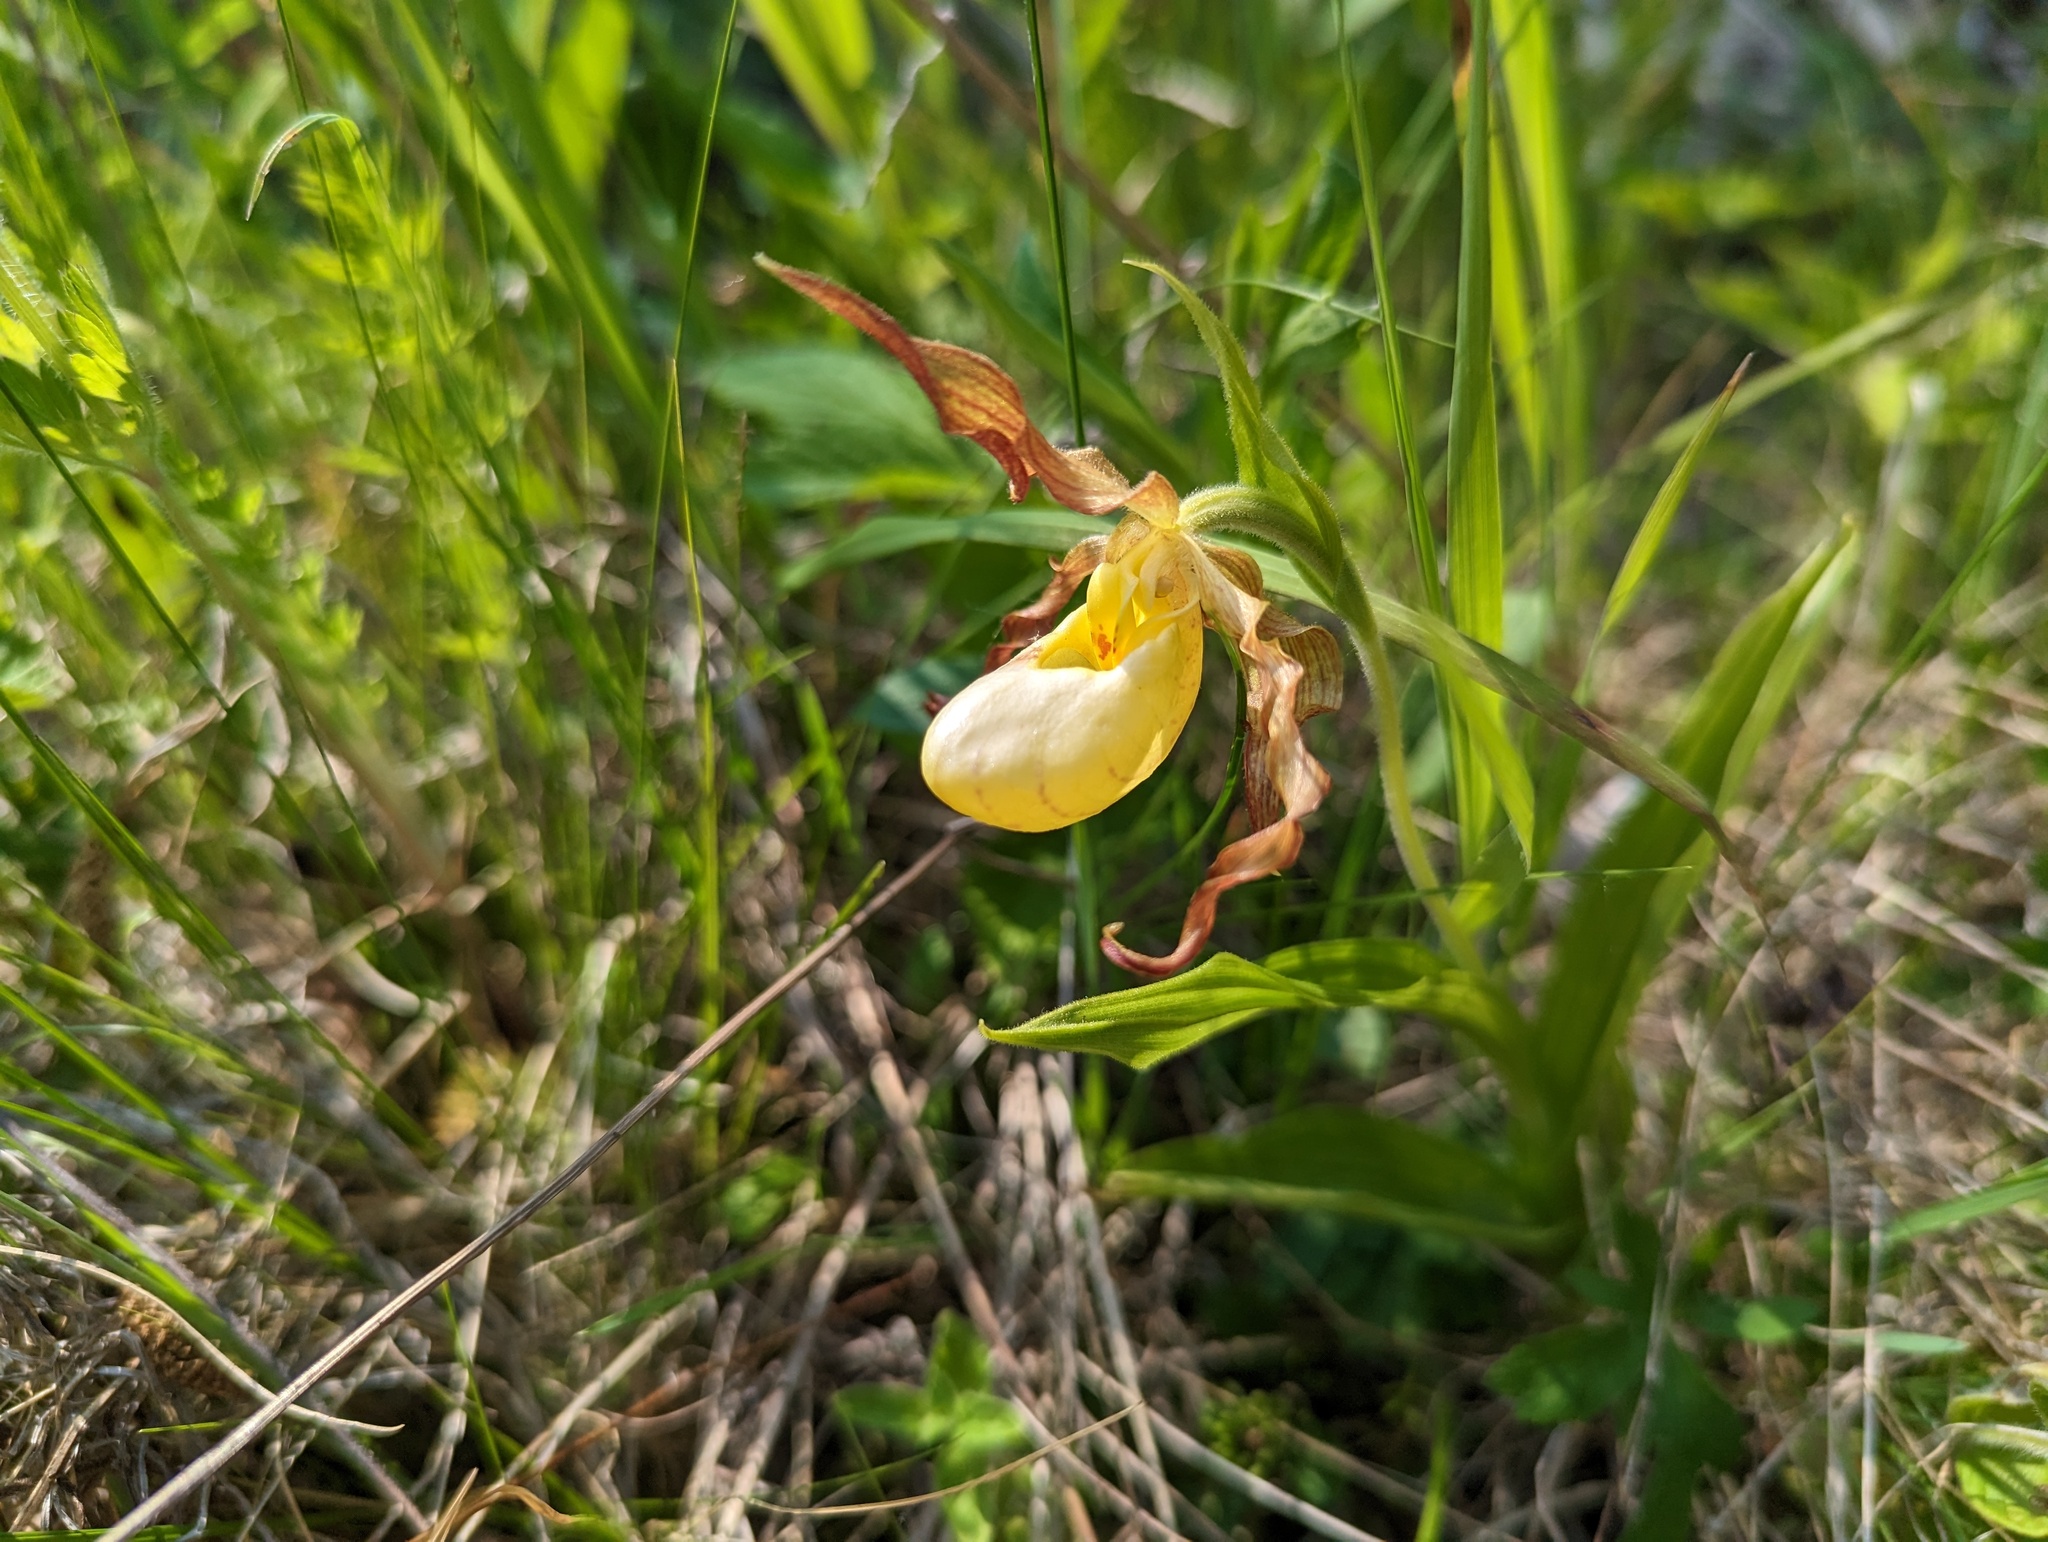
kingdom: Plantae
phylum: Tracheophyta
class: Liliopsida
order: Asparagales
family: Orchidaceae
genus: Cypripedium
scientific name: Cypripedium parviflorum
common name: American yellow lady's-slipper
